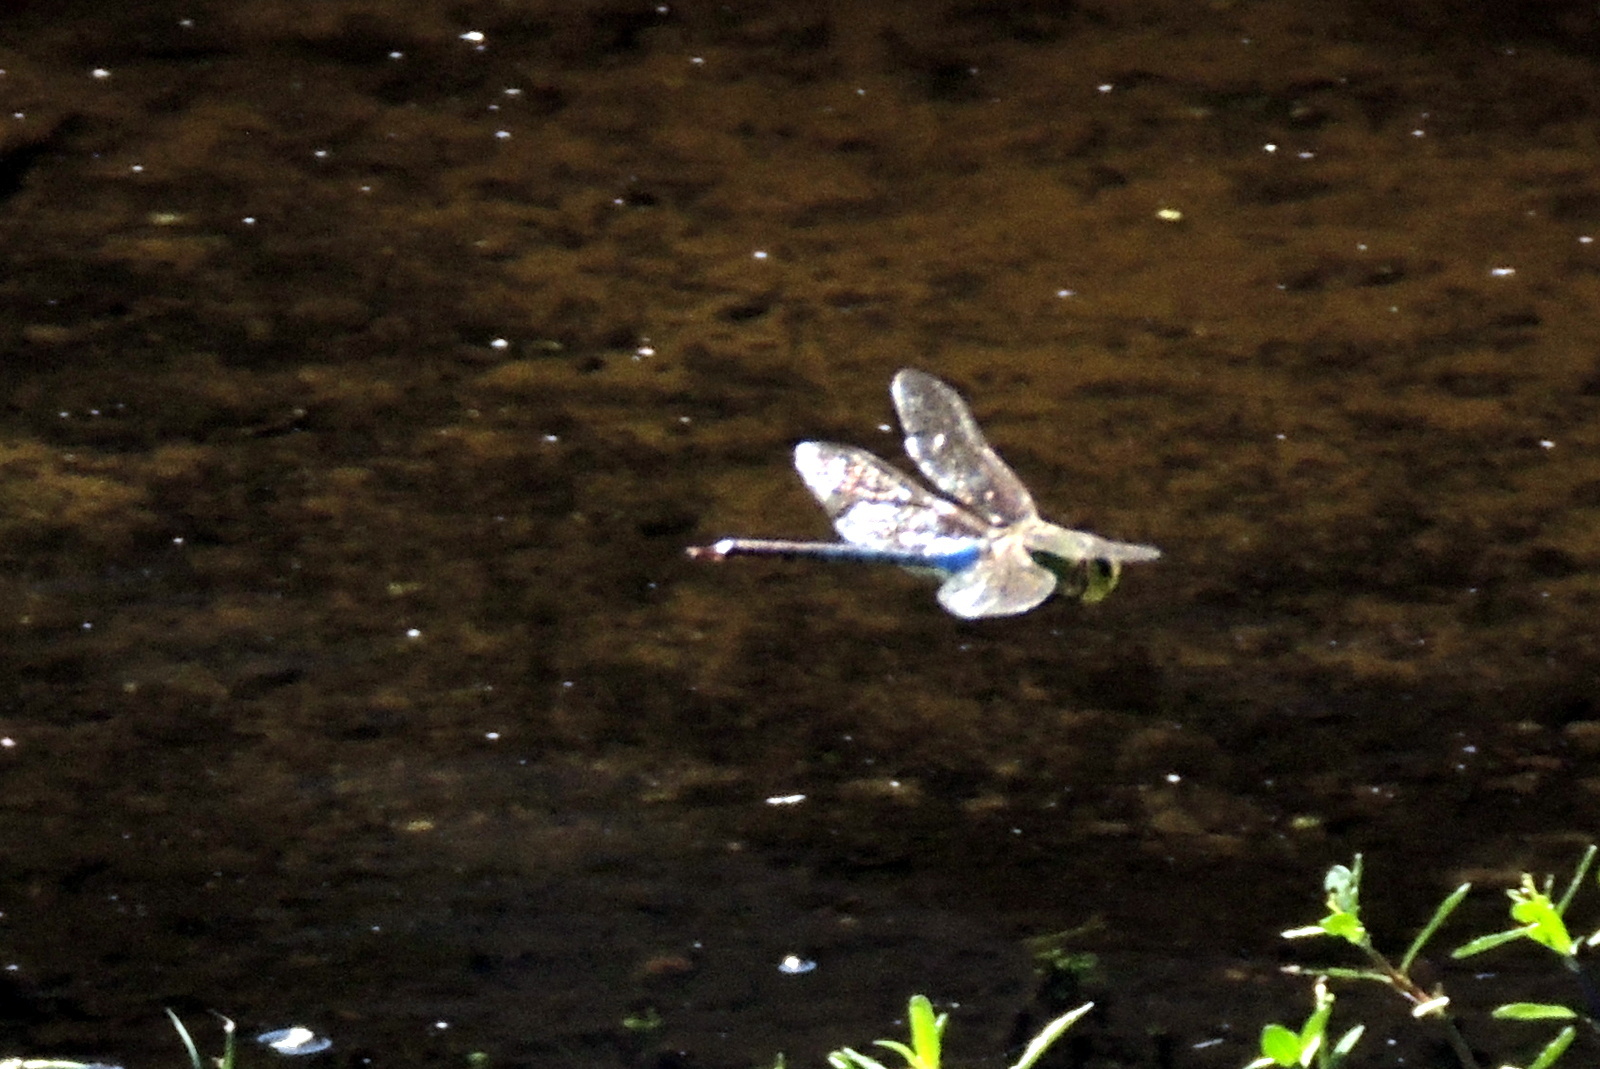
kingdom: Animalia
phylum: Arthropoda
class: Insecta
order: Odonata
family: Aeshnidae
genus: Anax
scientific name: Anax junius
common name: Common green darner
